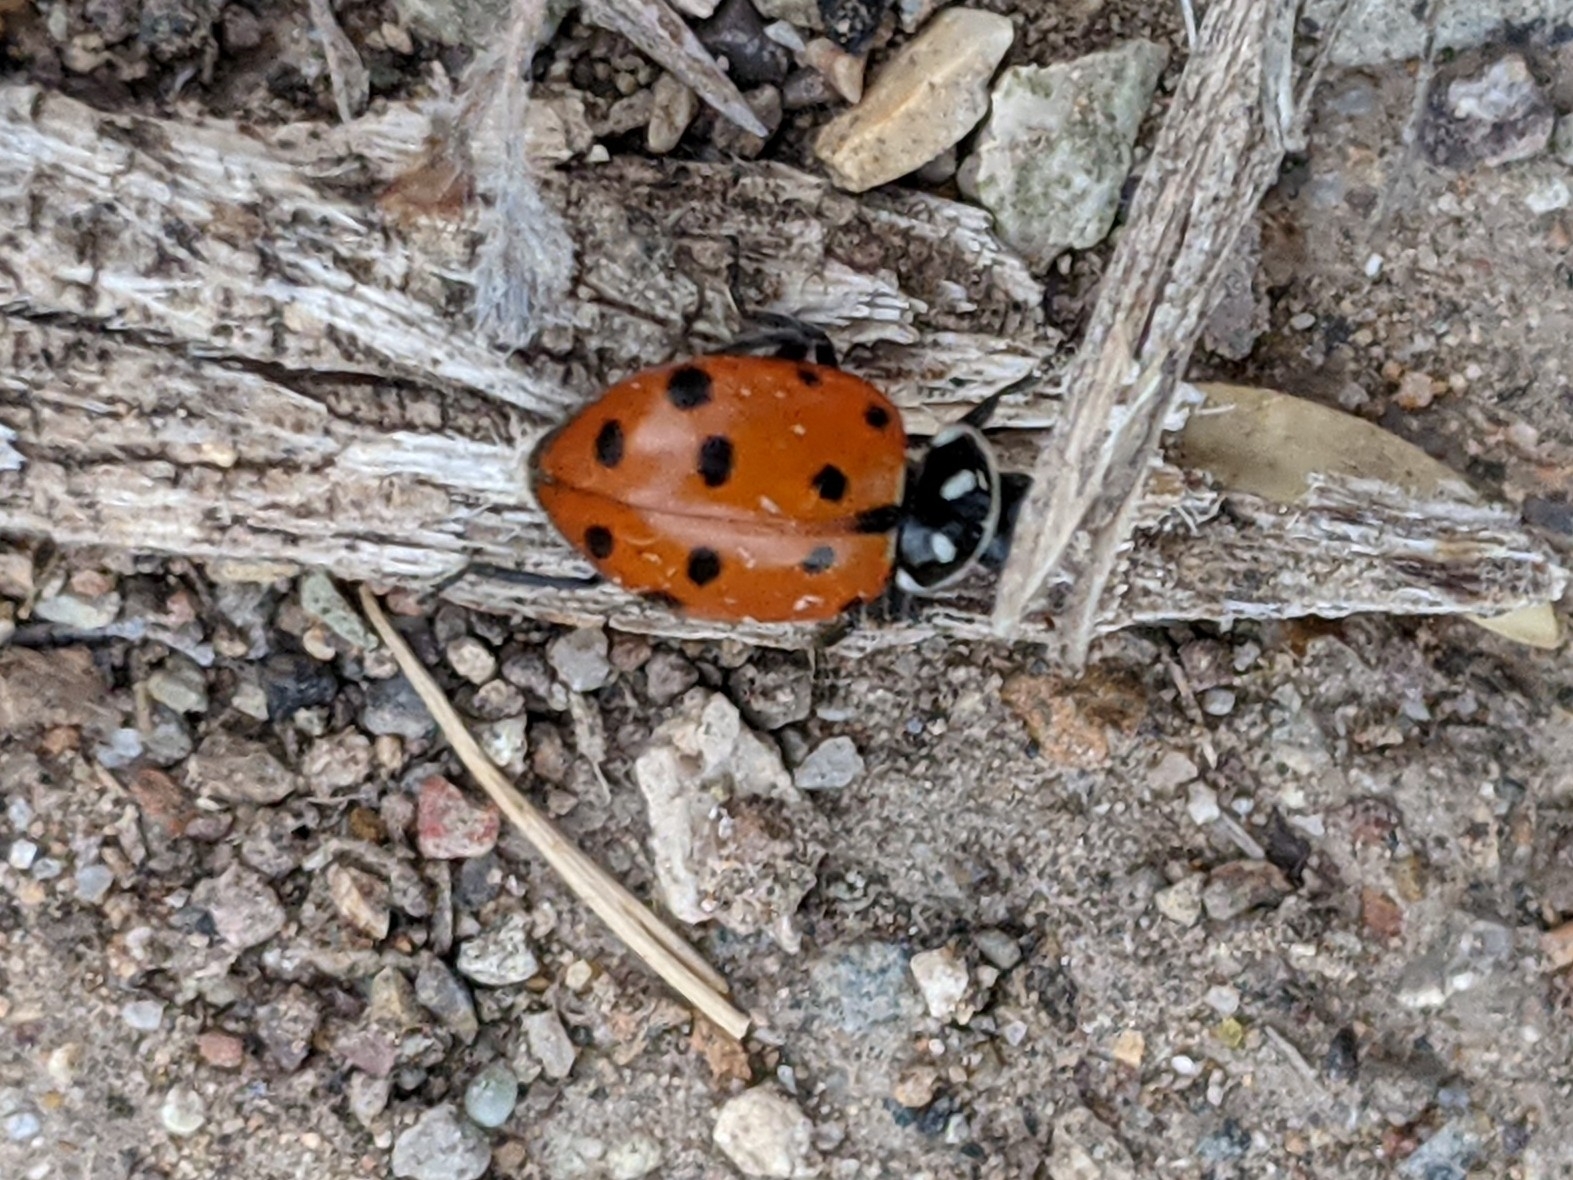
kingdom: Animalia
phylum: Arthropoda
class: Insecta
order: Coleoptera
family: Coccinellidae
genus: Hippodamia
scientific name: Hippodamia convergens
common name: Convergent lady beetle
